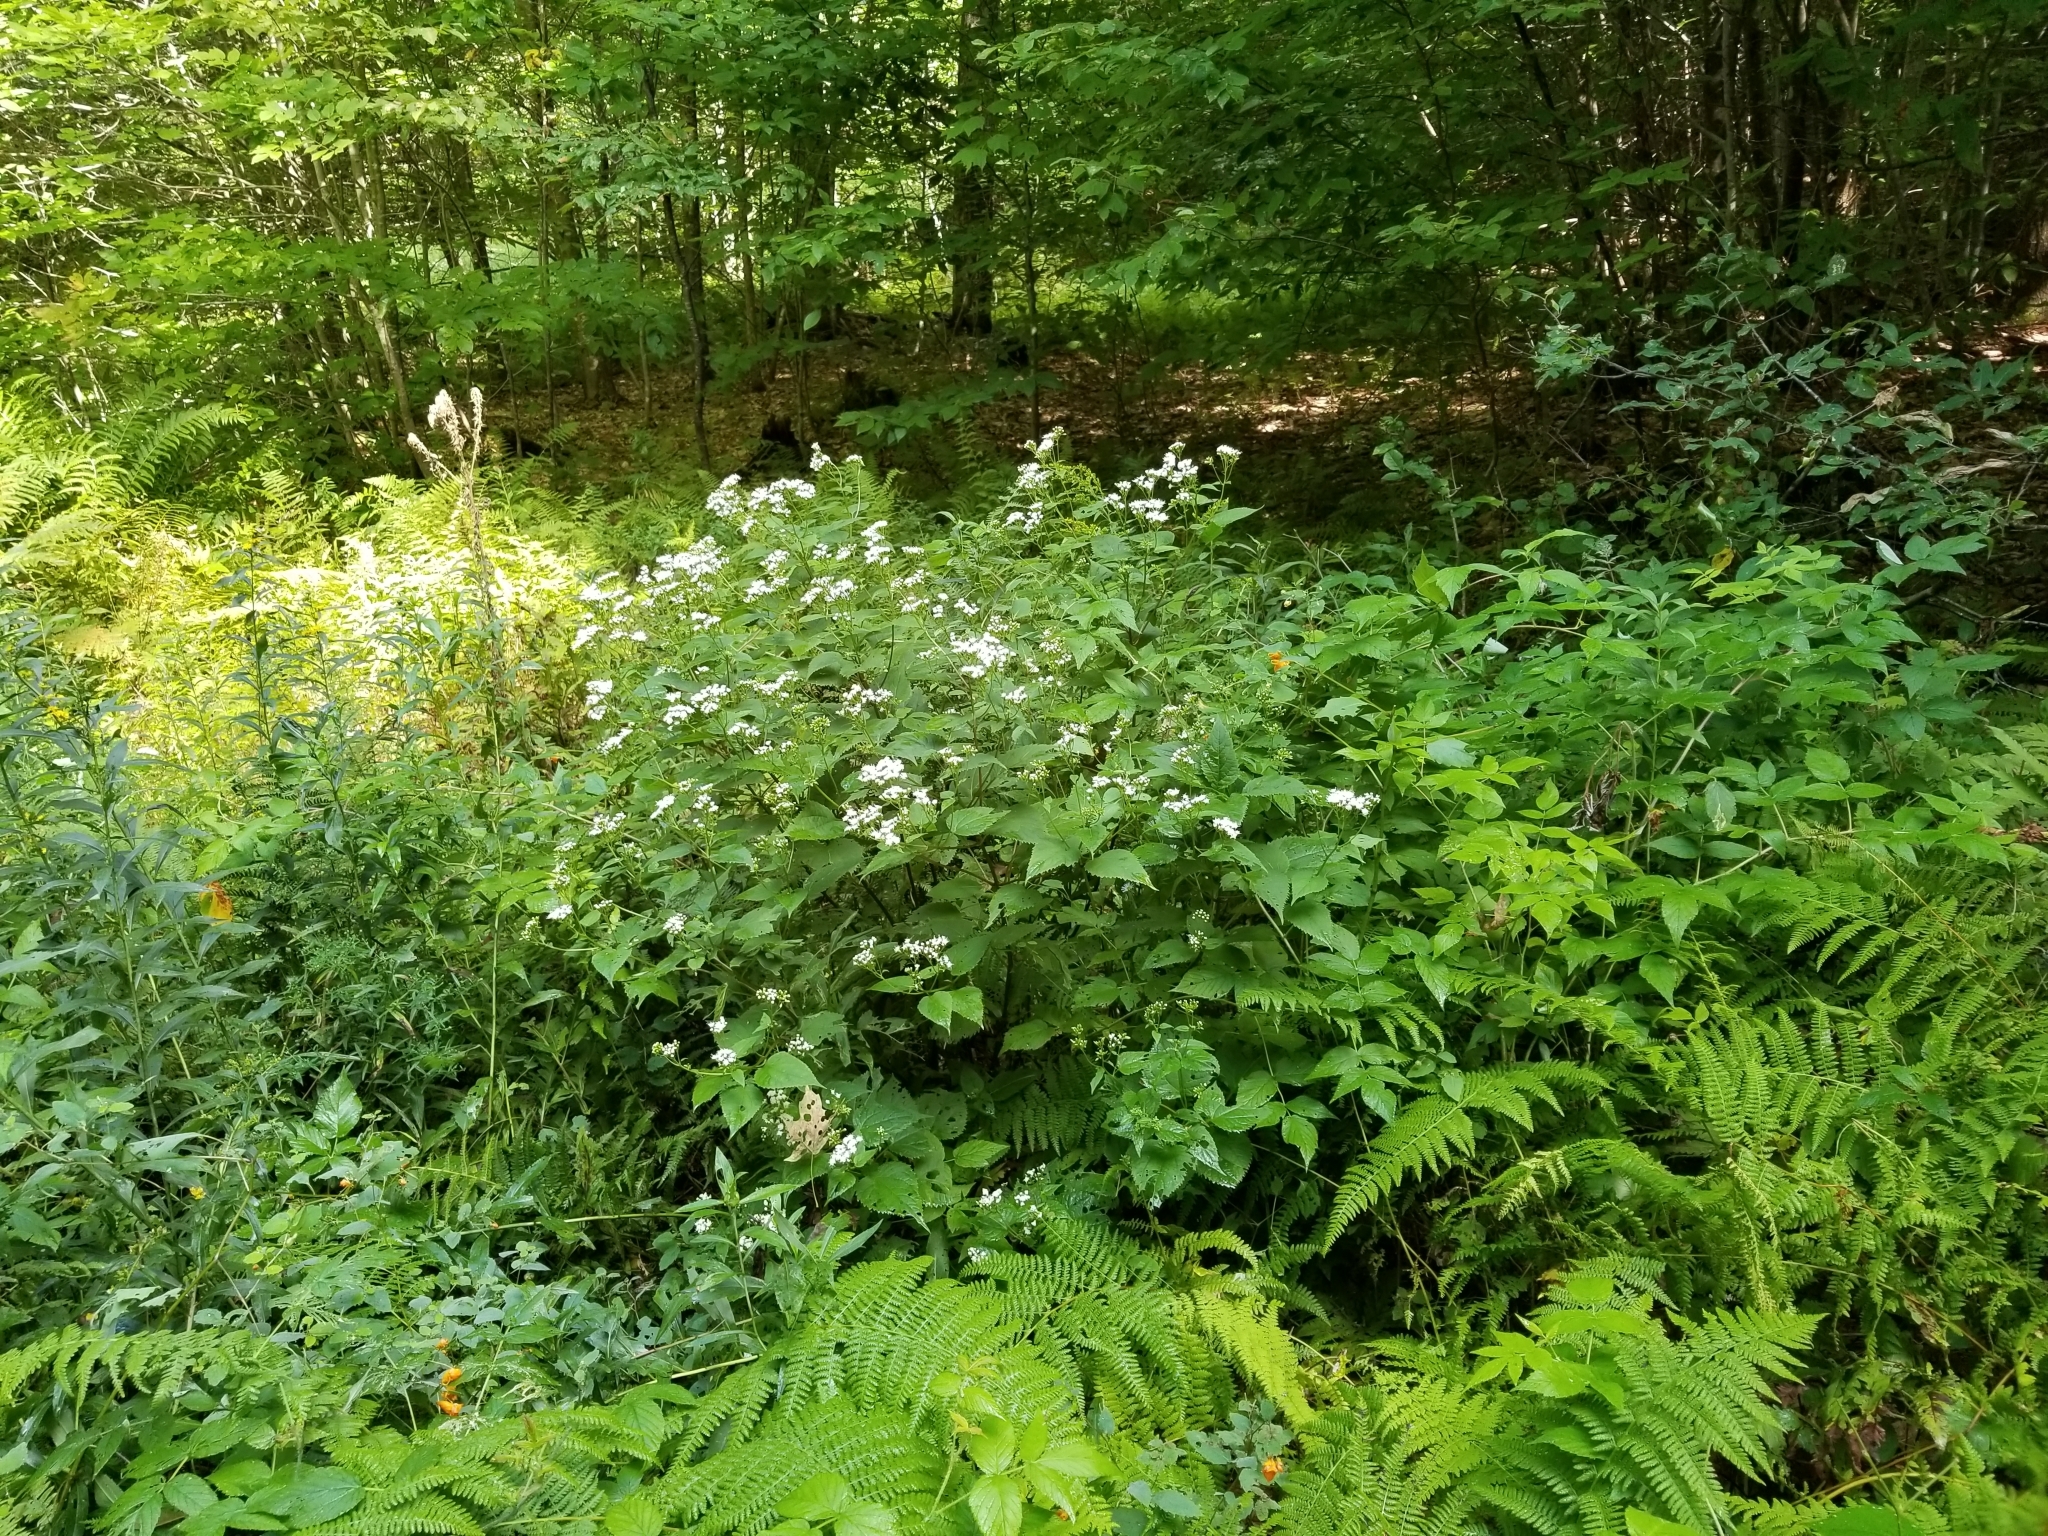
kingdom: Plantae
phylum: Tracheophyta
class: Magnoliopsida
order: Asterales
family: Asteraceae
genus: Ageratina
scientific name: Ageratina altissima
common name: White snakeroot
